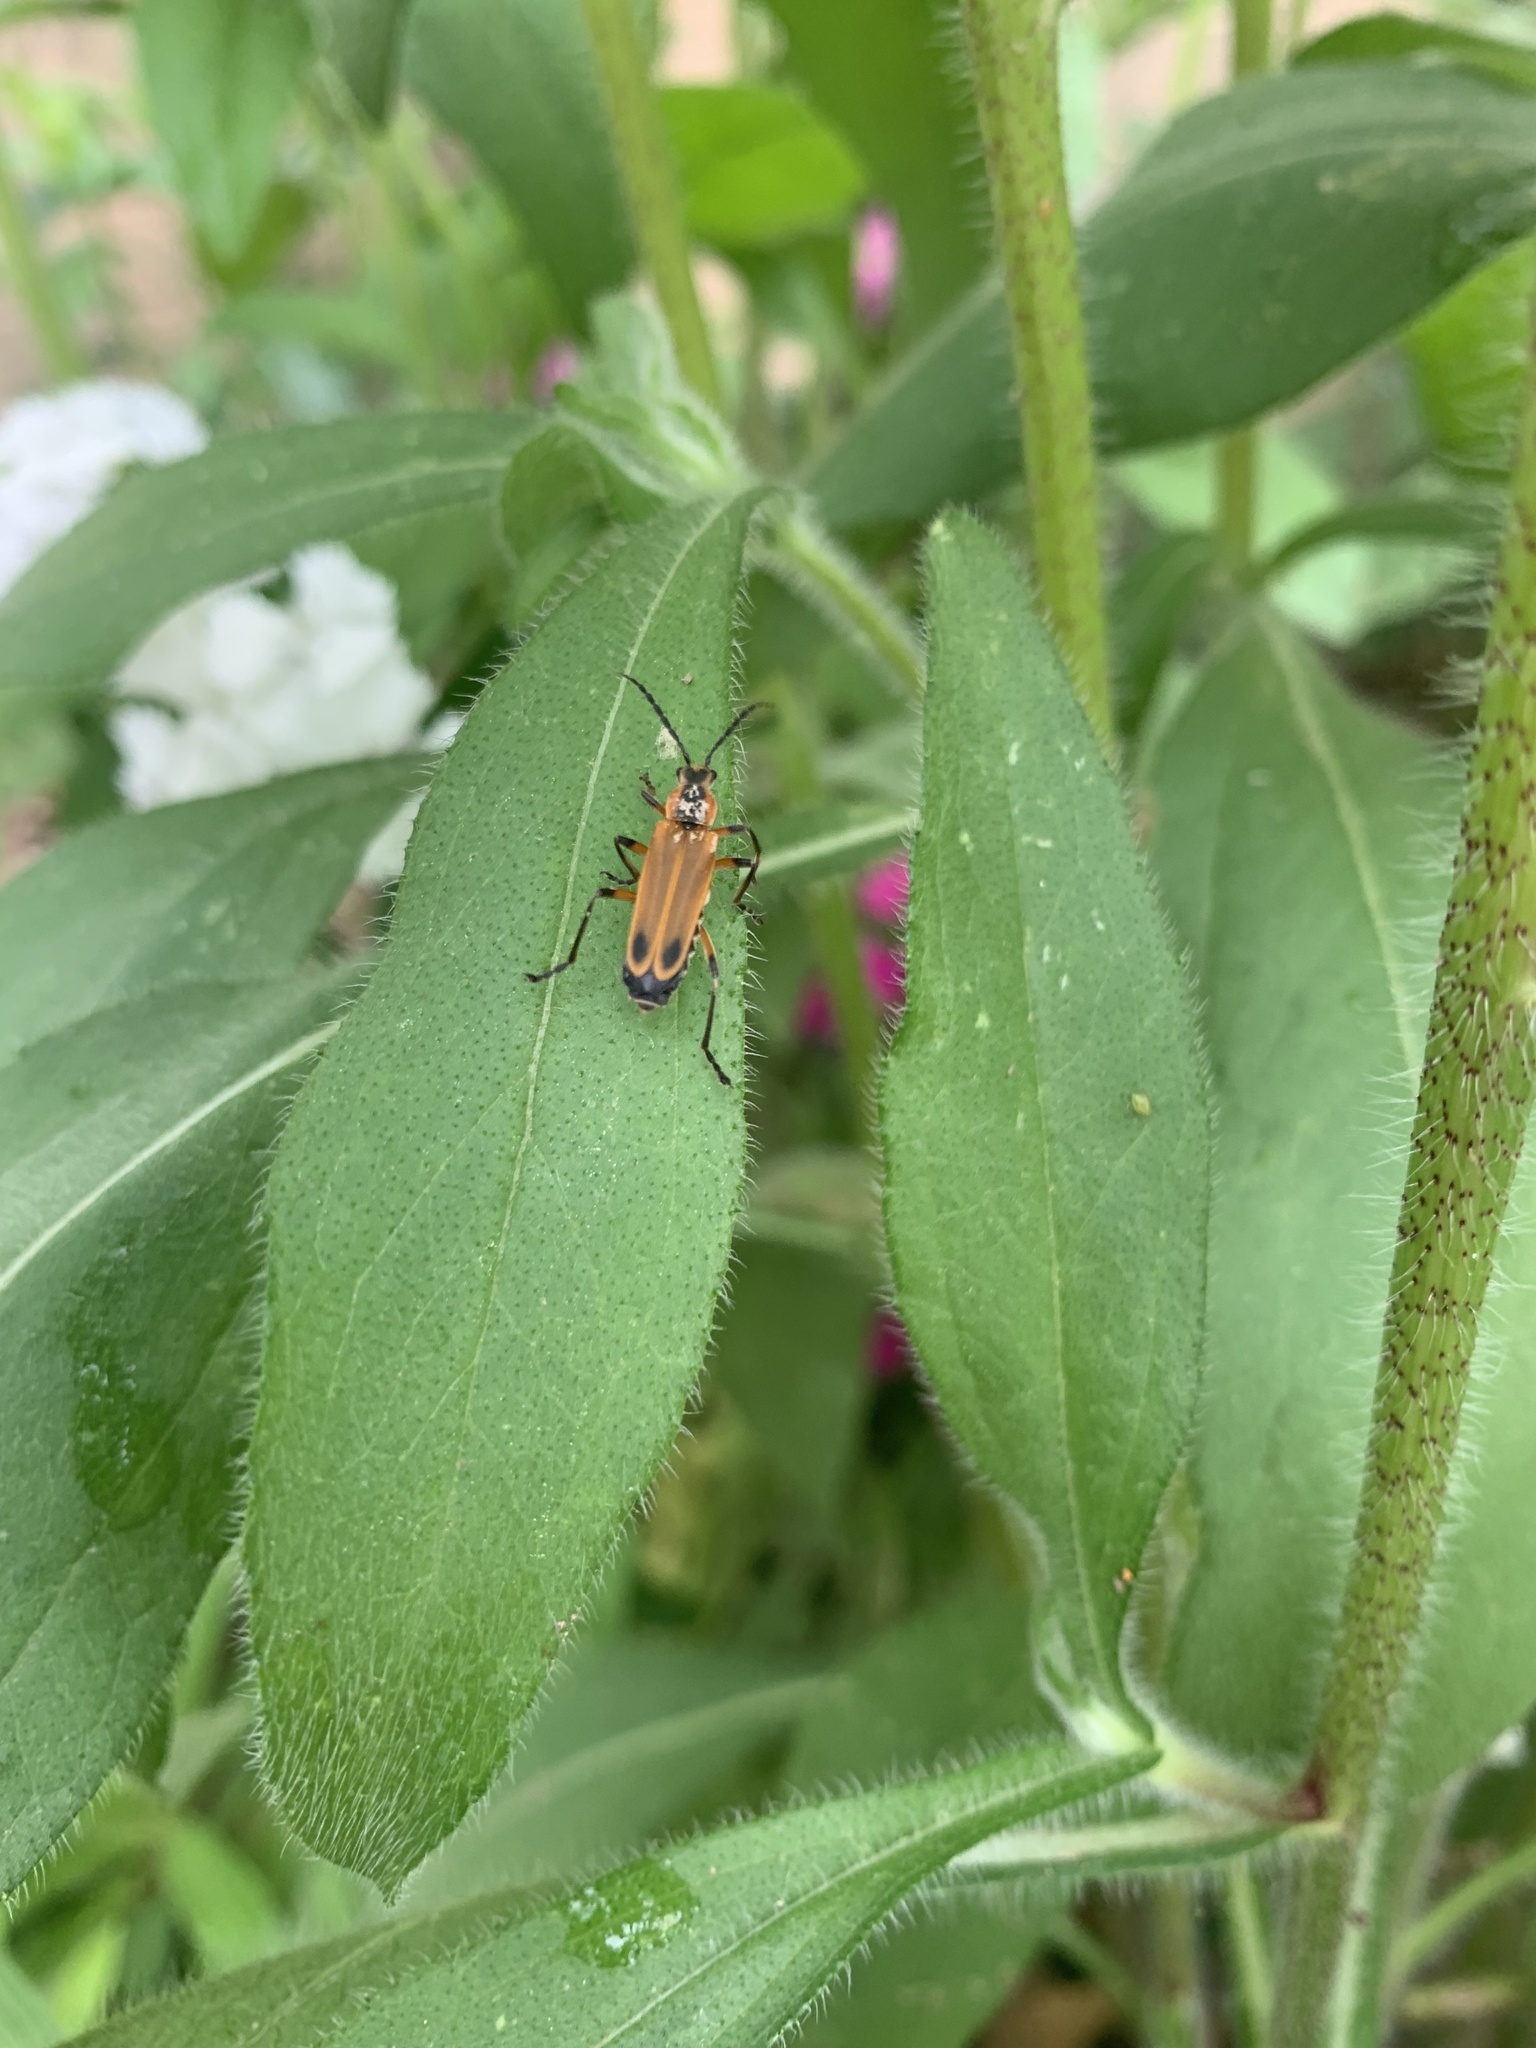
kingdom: Animalia
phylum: Arthropoda
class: Insecta
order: Coleoptera
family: Cantharidae
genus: Chauliognathus
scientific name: Chauliognathus marginatus
